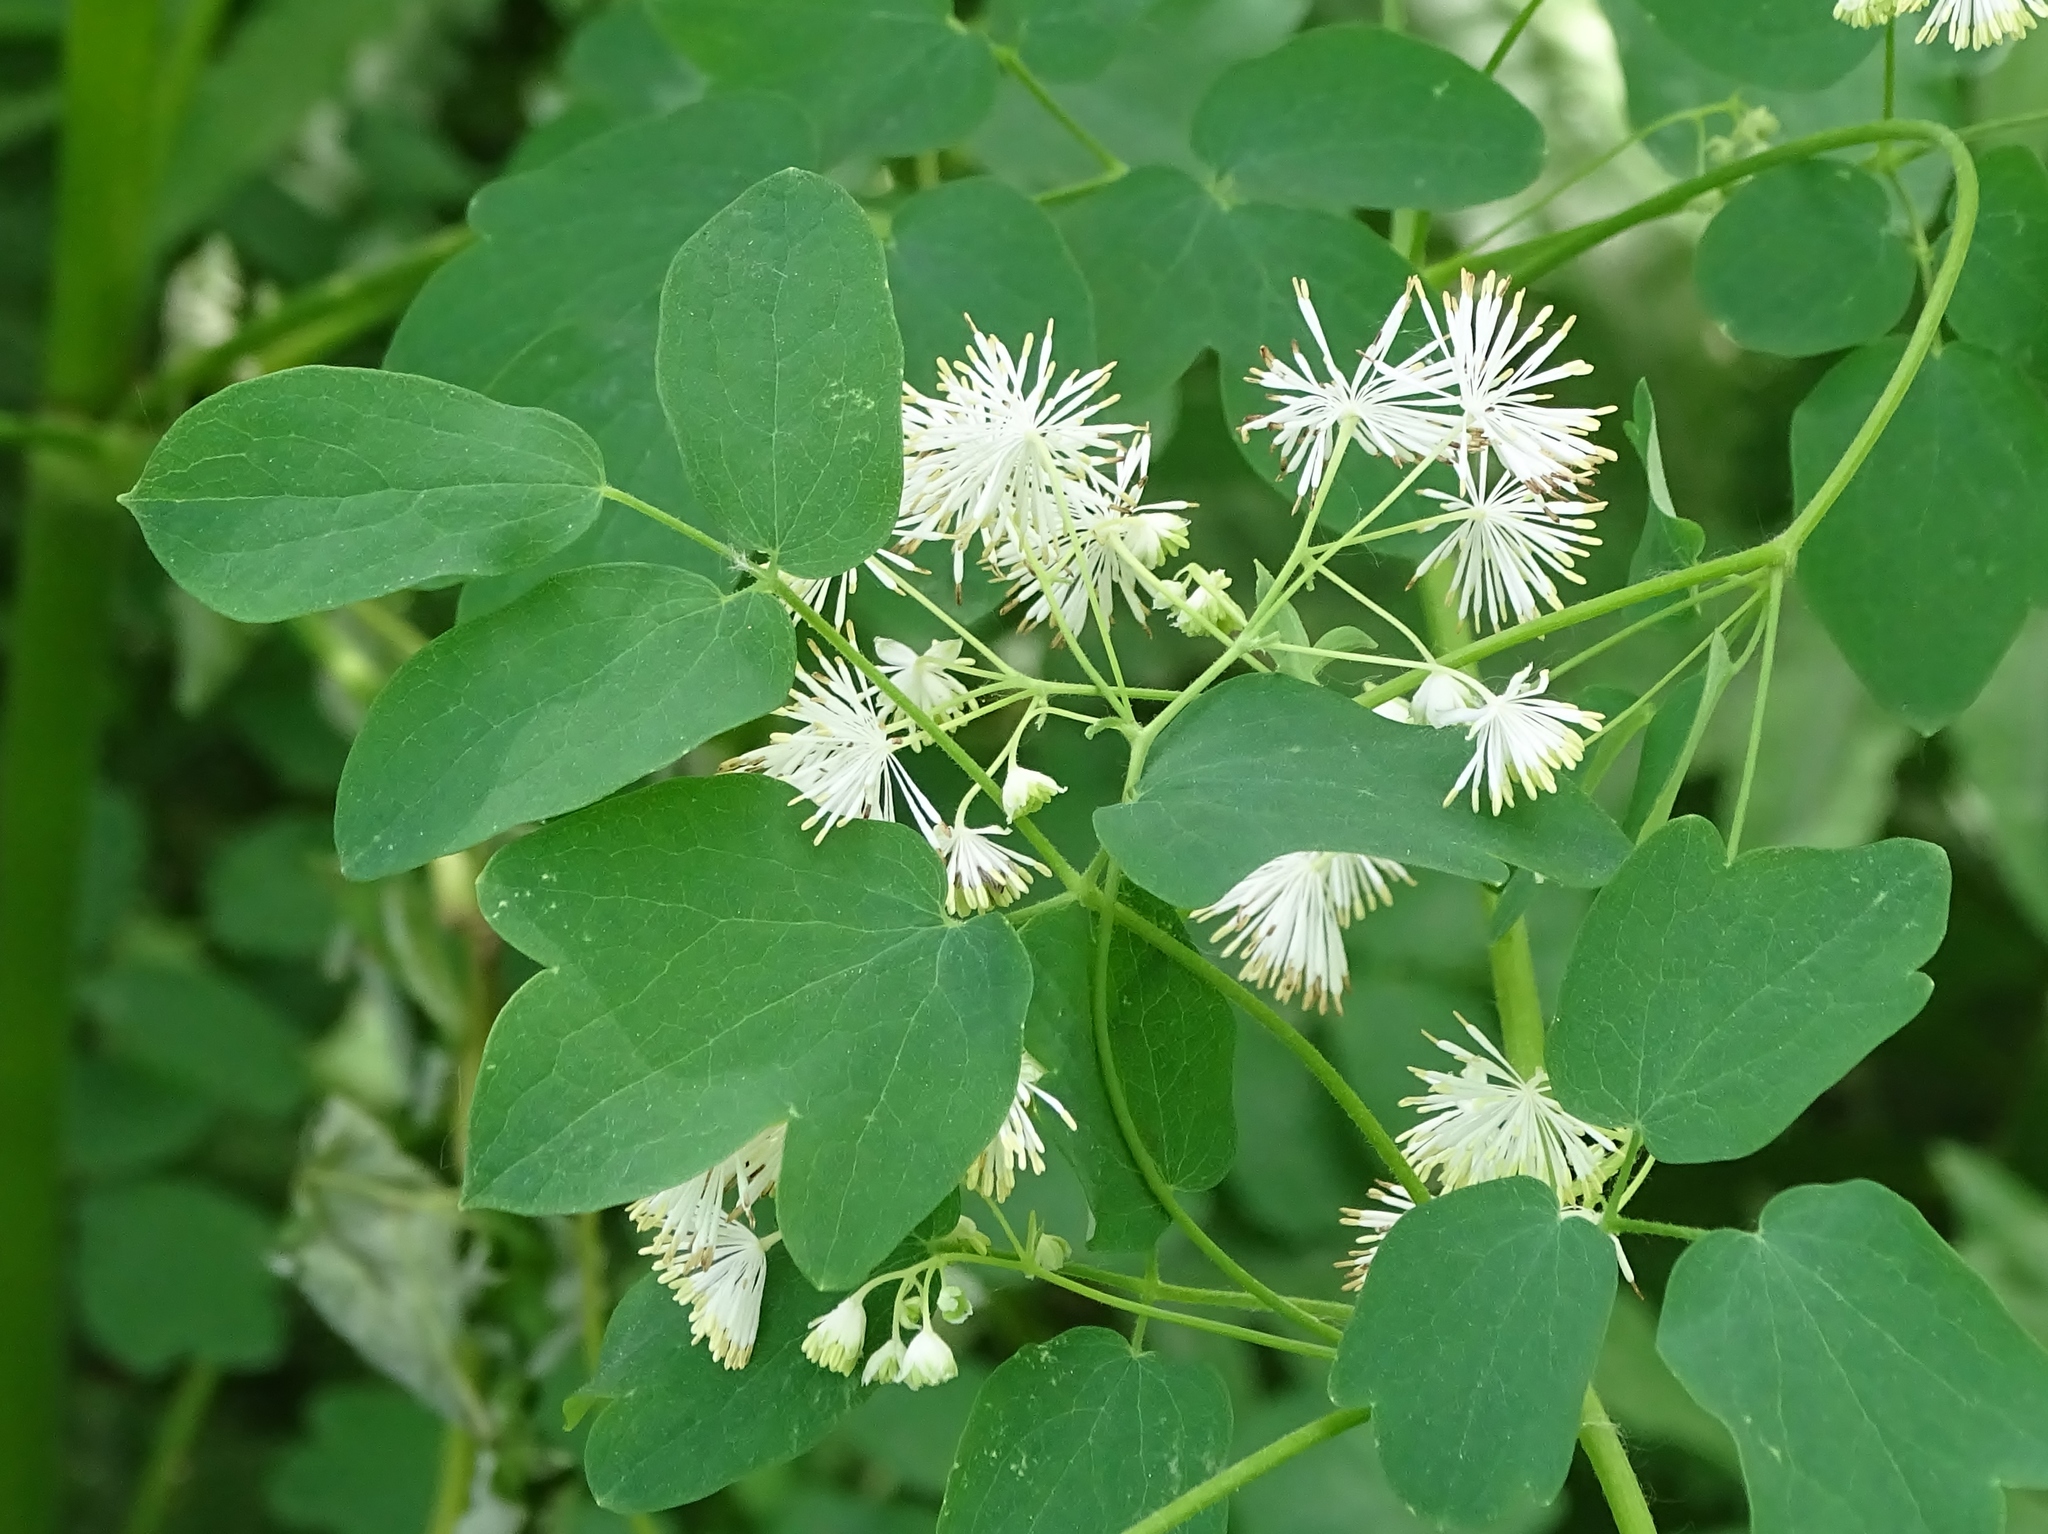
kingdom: Plantae
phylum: Tracheophyta
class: Magnoliopsida
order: Ranunculales
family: Ranunculaceae
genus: Thalictrum
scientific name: Thalictrum pubescens
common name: King-of-the-meadow
